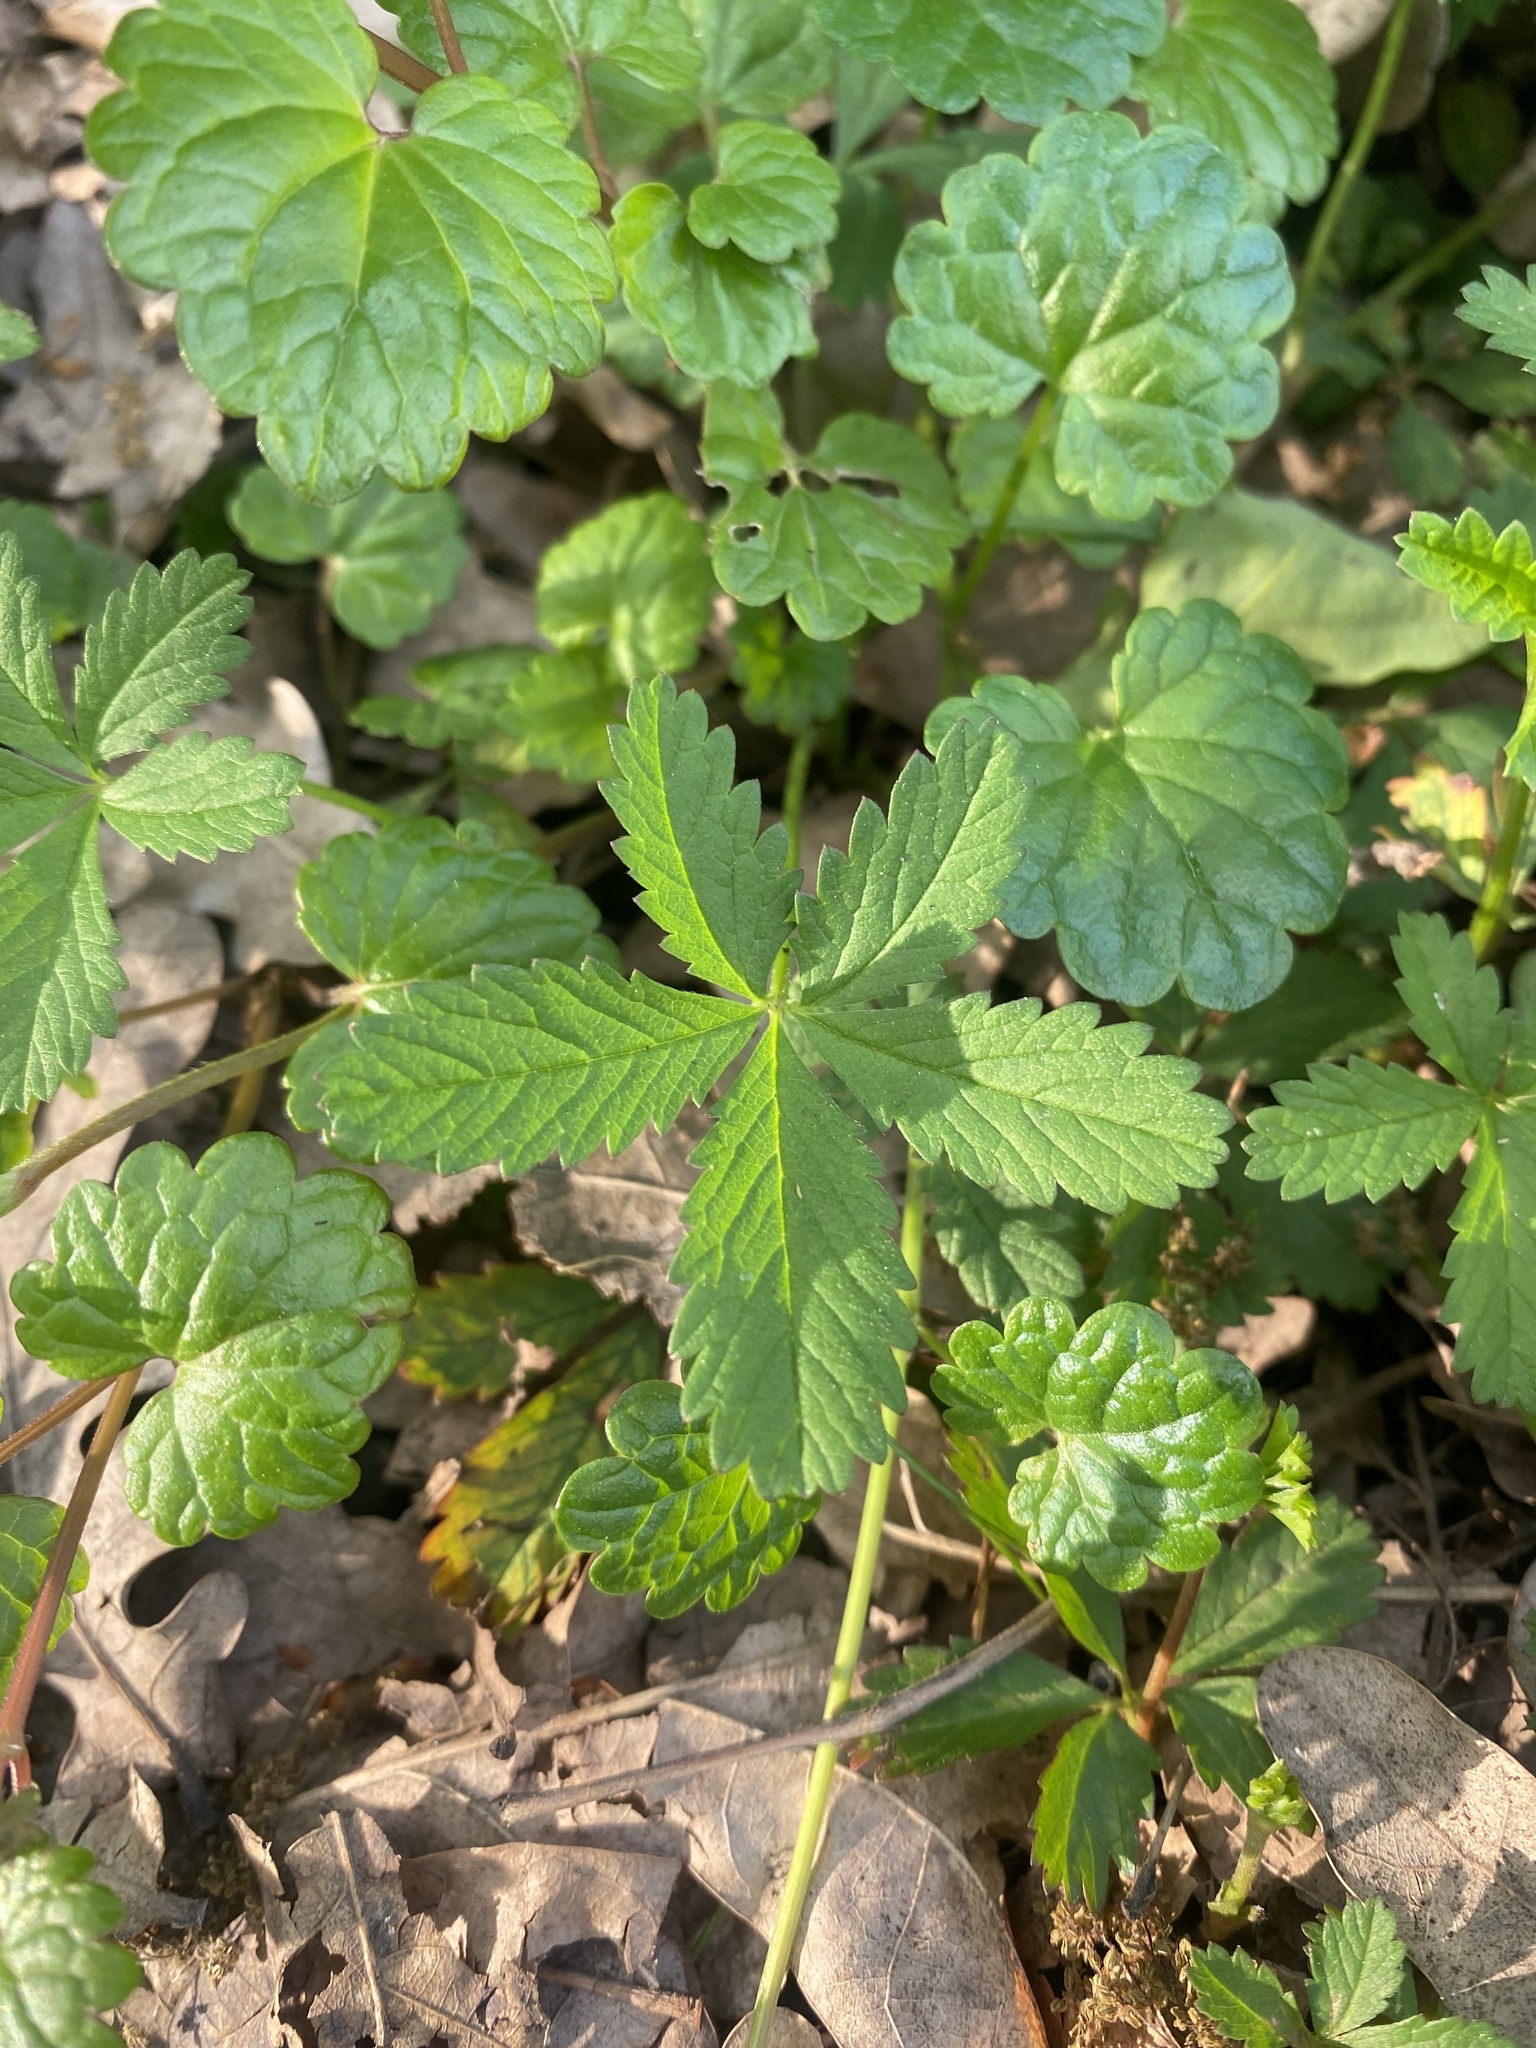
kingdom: Plantae
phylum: Tracheophyta
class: Magnoliopsida
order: Rosales
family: Rosaceae
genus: Potentilla
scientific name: Potentilla reptans
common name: Creeping cinquefoil
